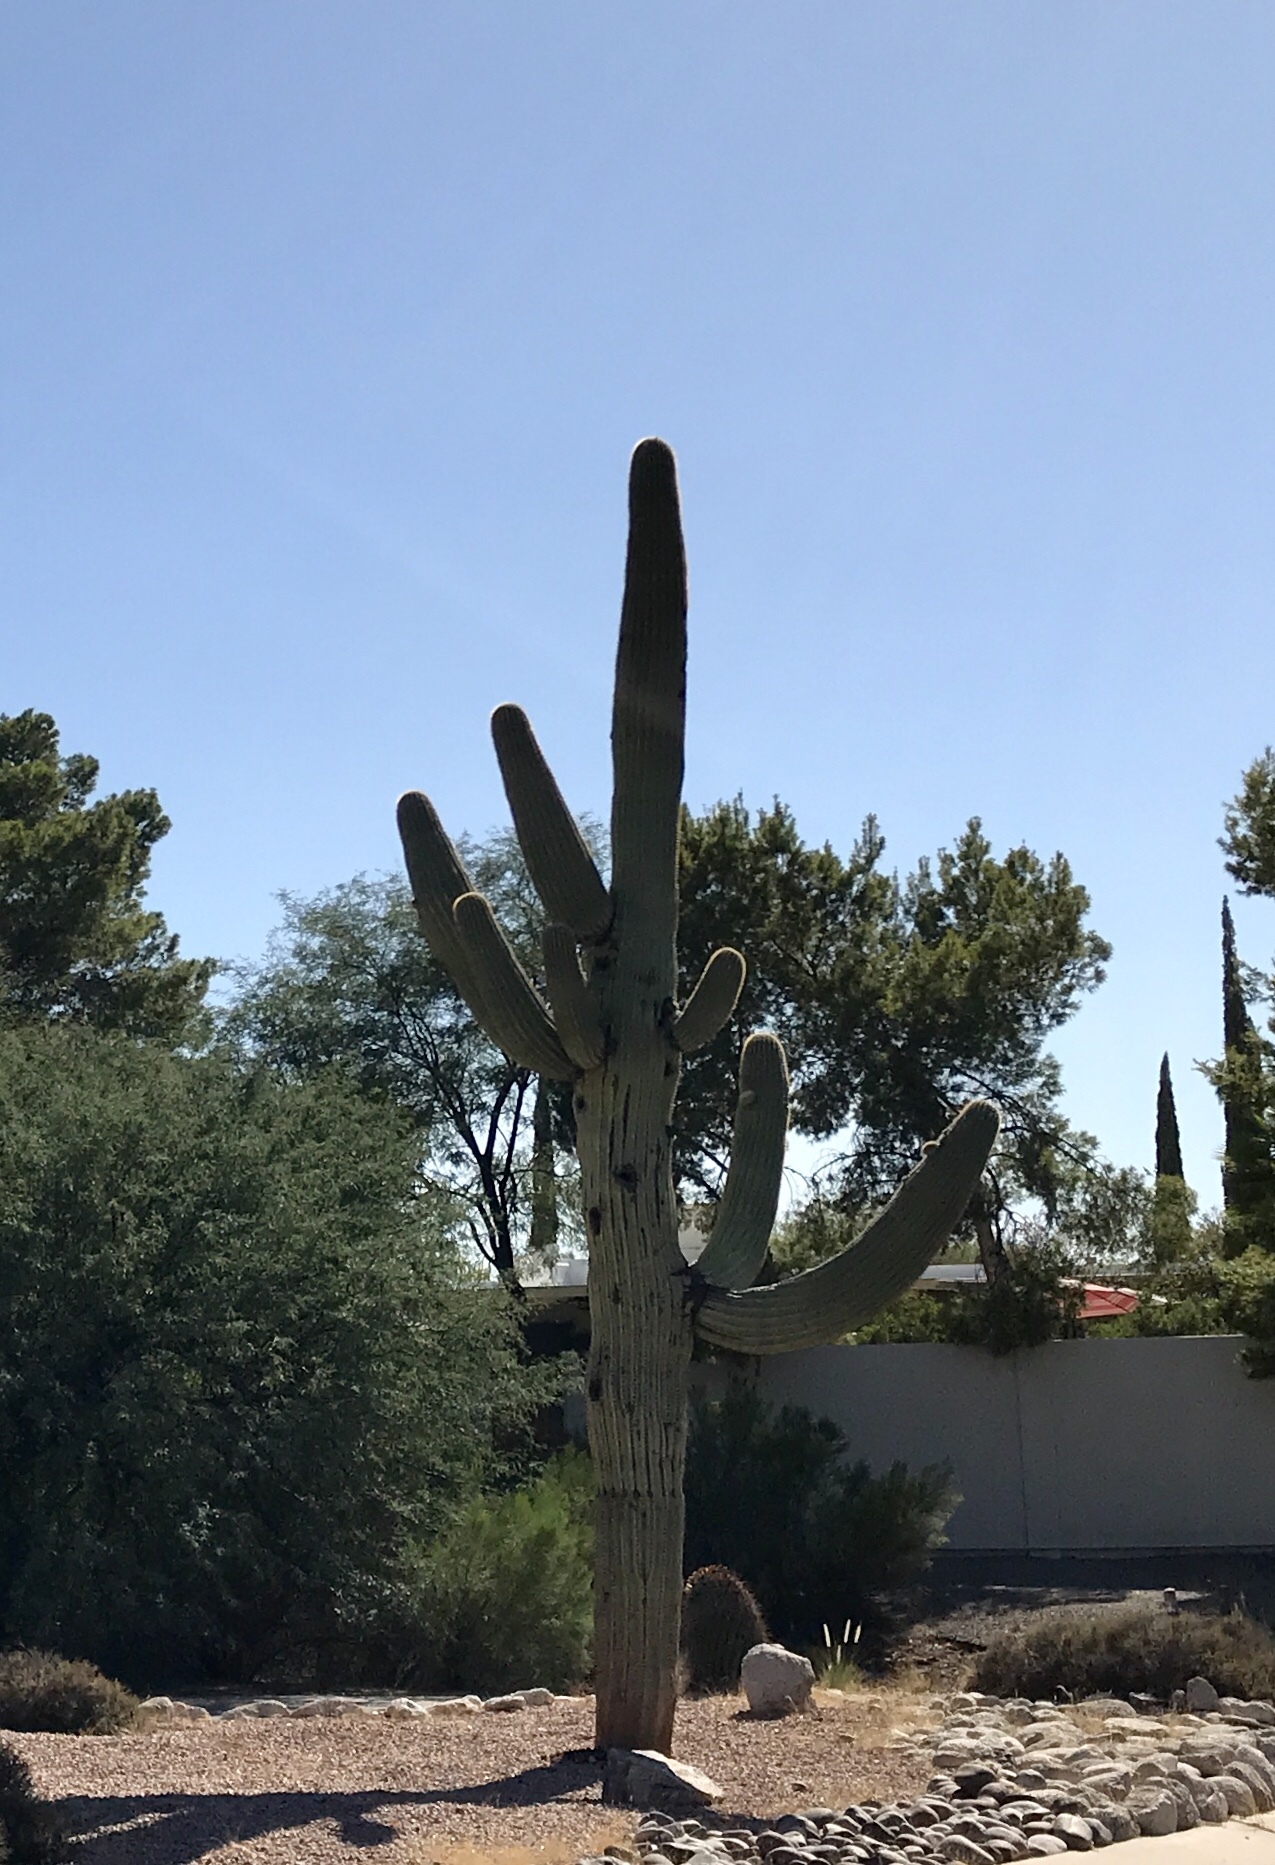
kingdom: Plantae
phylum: Tracheophyta
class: Magnoliopsida
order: Caryophyllales
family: Cactaceae
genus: Carnegiea
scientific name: Carnegiea gigantea
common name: Saguaro
